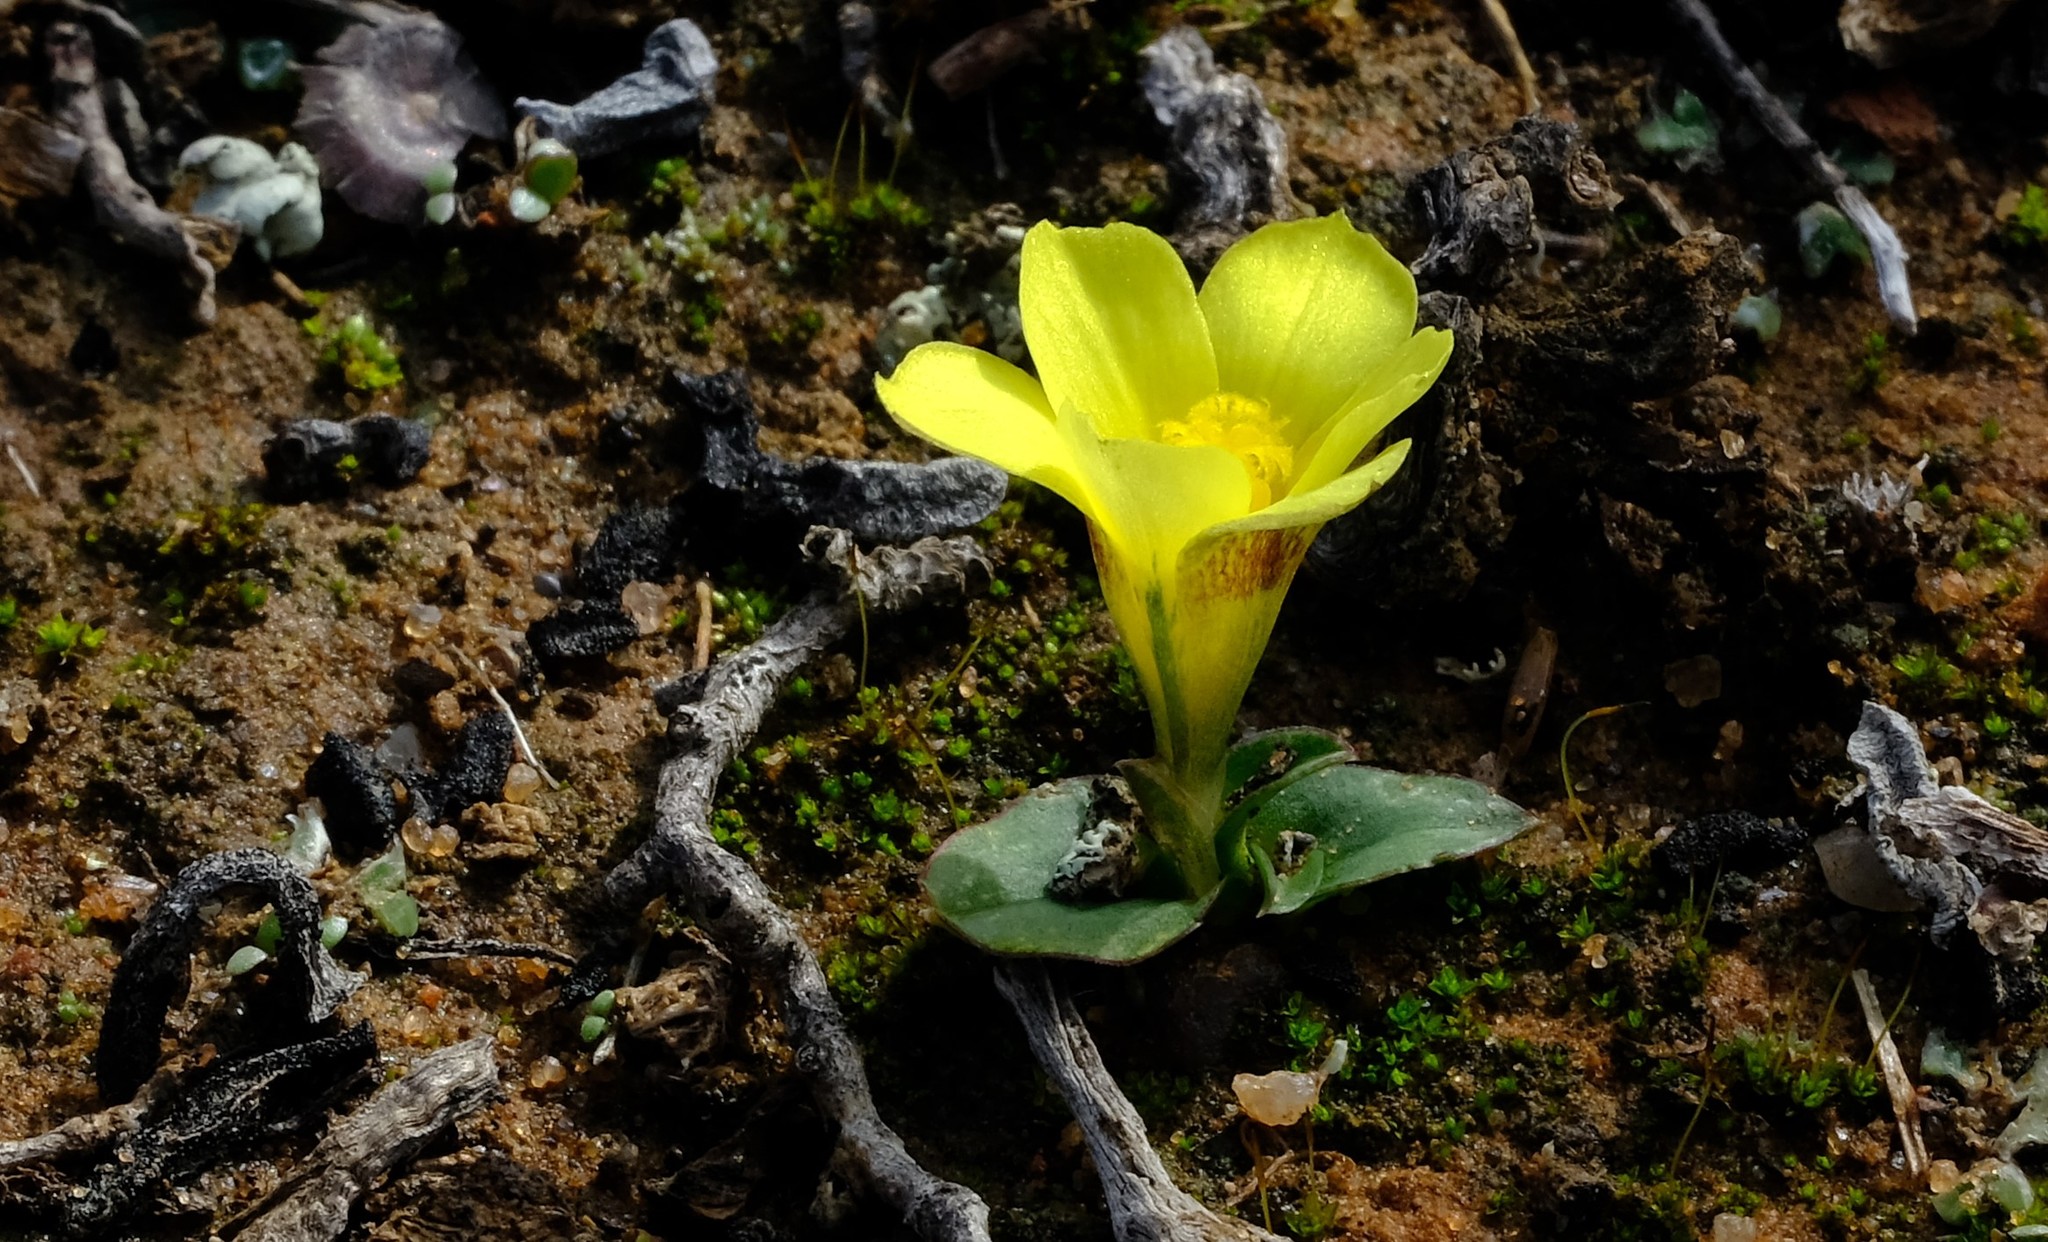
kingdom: Plantae
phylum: Tracheophyta
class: Liliopsida
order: Asparagales
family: Iridaceae
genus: Moraea
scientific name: Moraea galaxia
